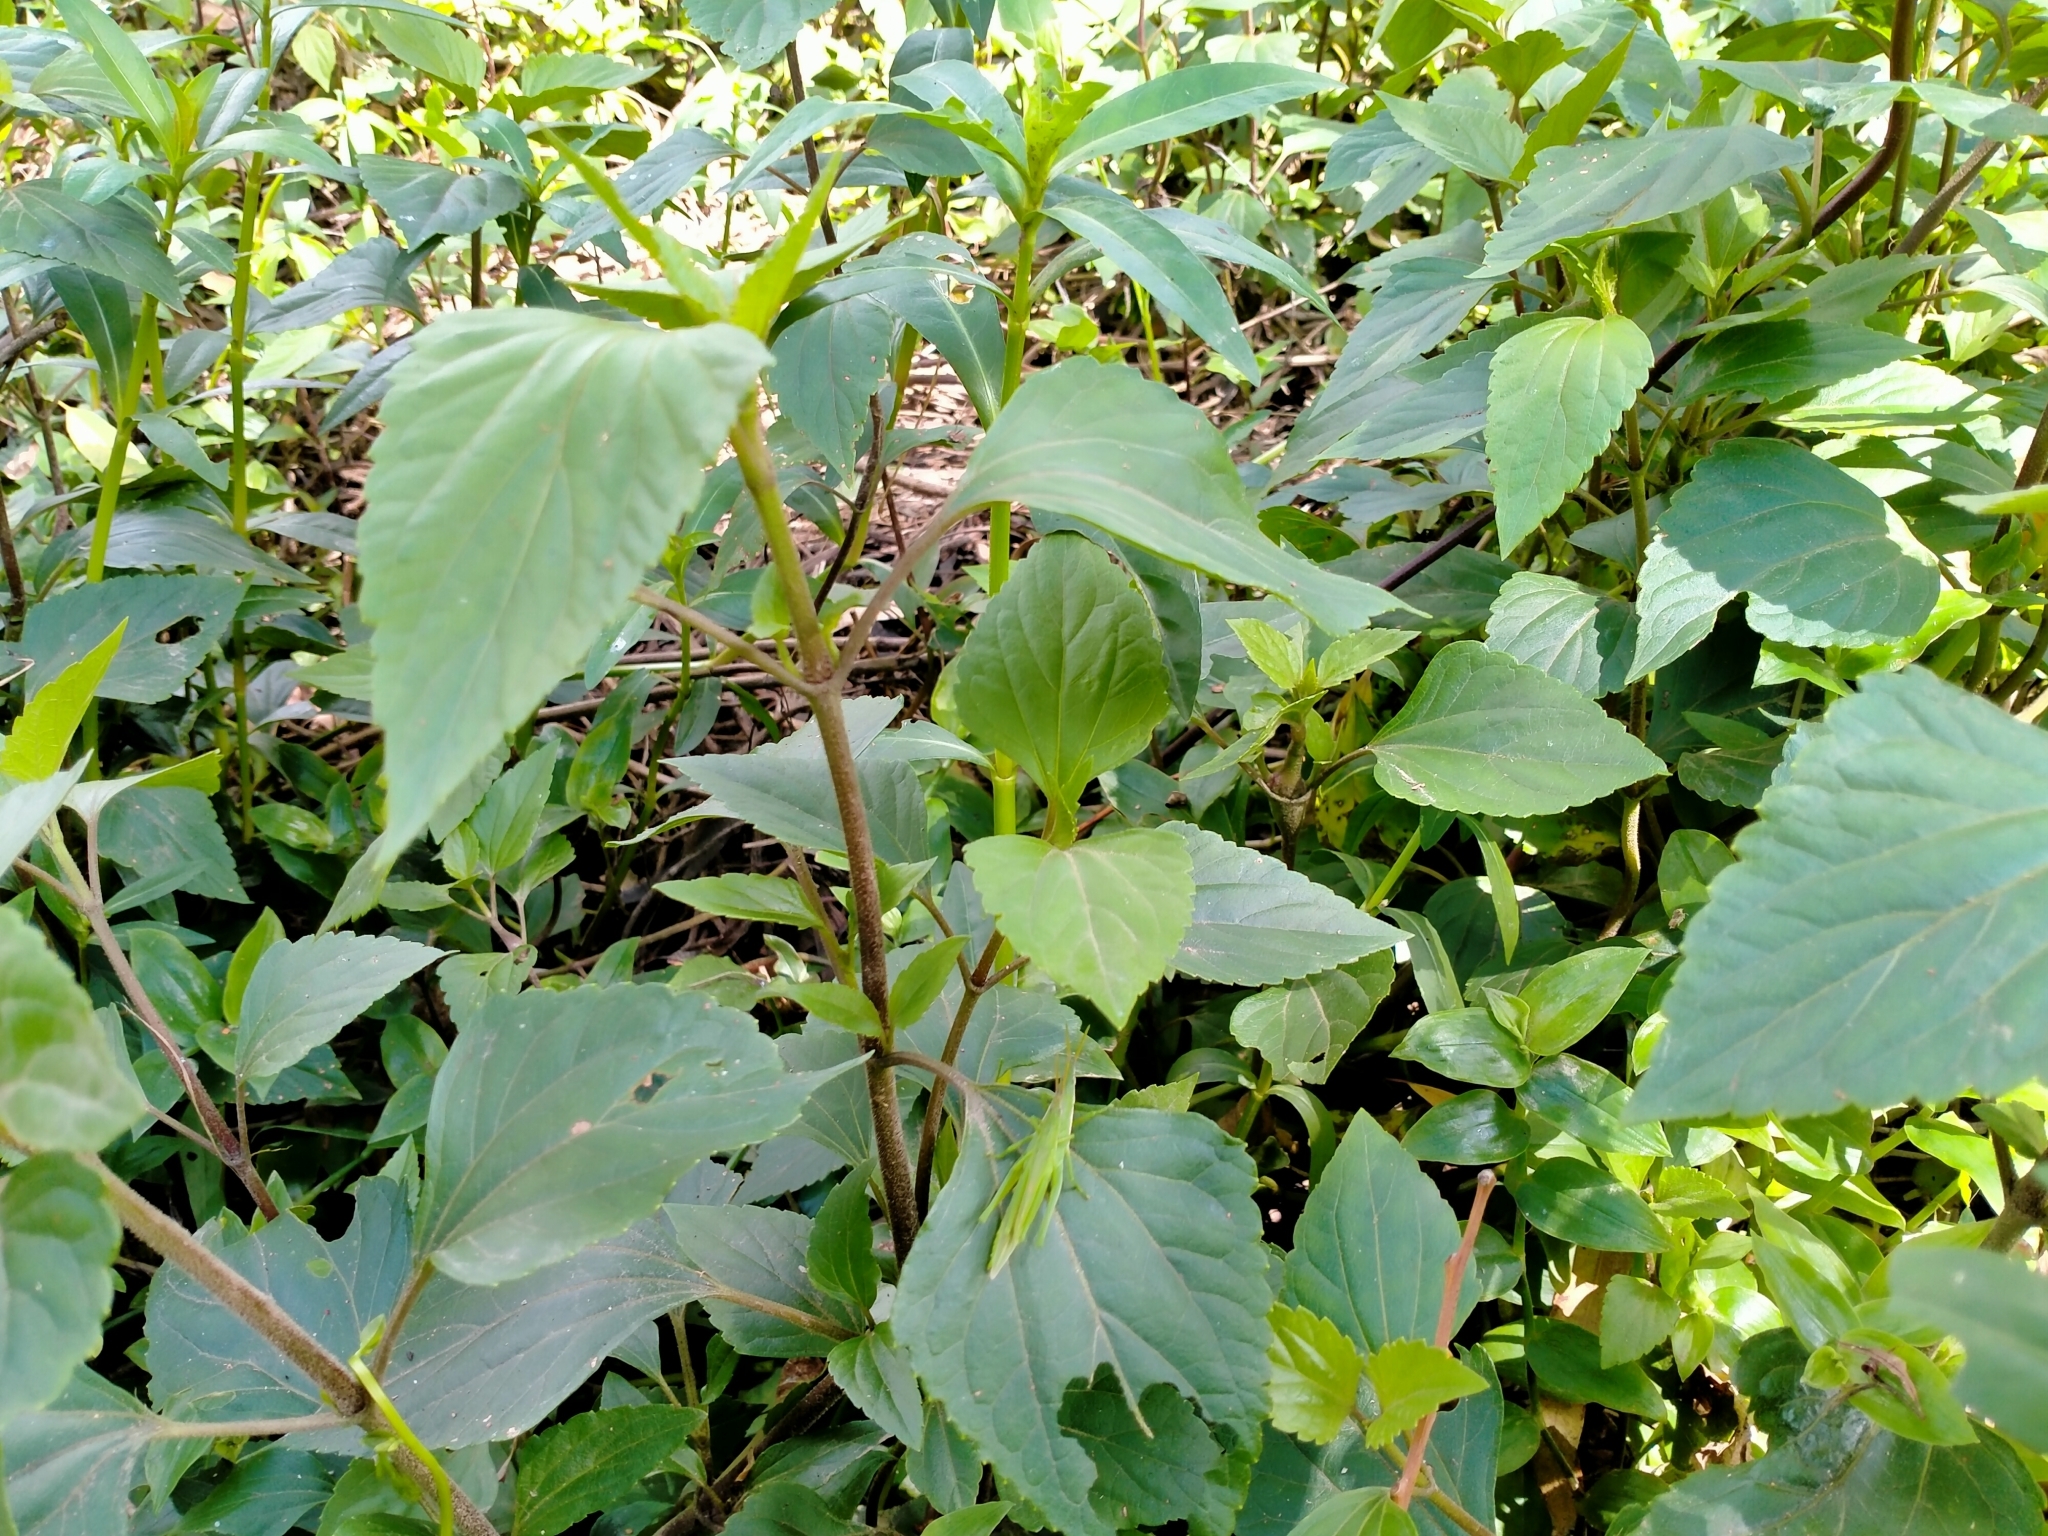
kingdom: Plantae
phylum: Tracheophyta
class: Magnoliopsida
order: Asterales
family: Asteraceae
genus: Ageratina
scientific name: Ageratina adenophora
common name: Sticky snakeroot
